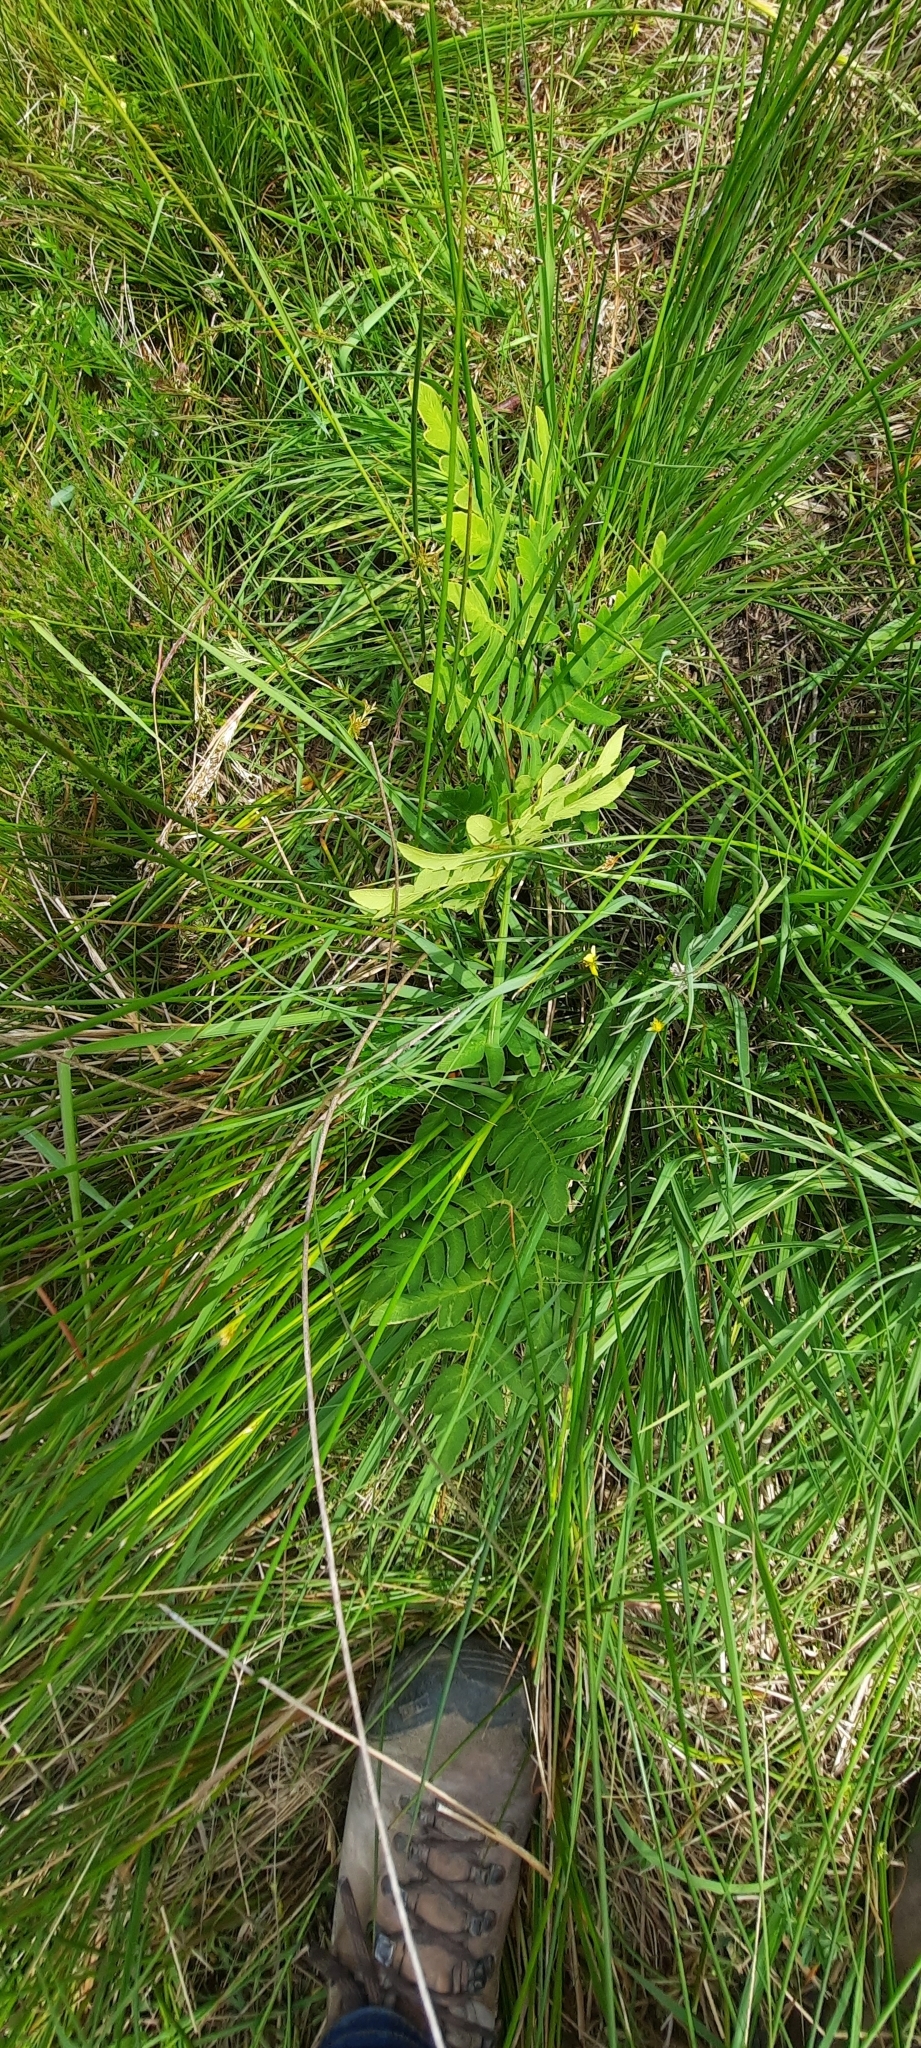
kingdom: Plantae
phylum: Tracheophyta
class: Polypodiopsida
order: Osmundales
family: Osmundaceae
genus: Osmunda
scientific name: Osmunda regalis
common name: Royal fern
